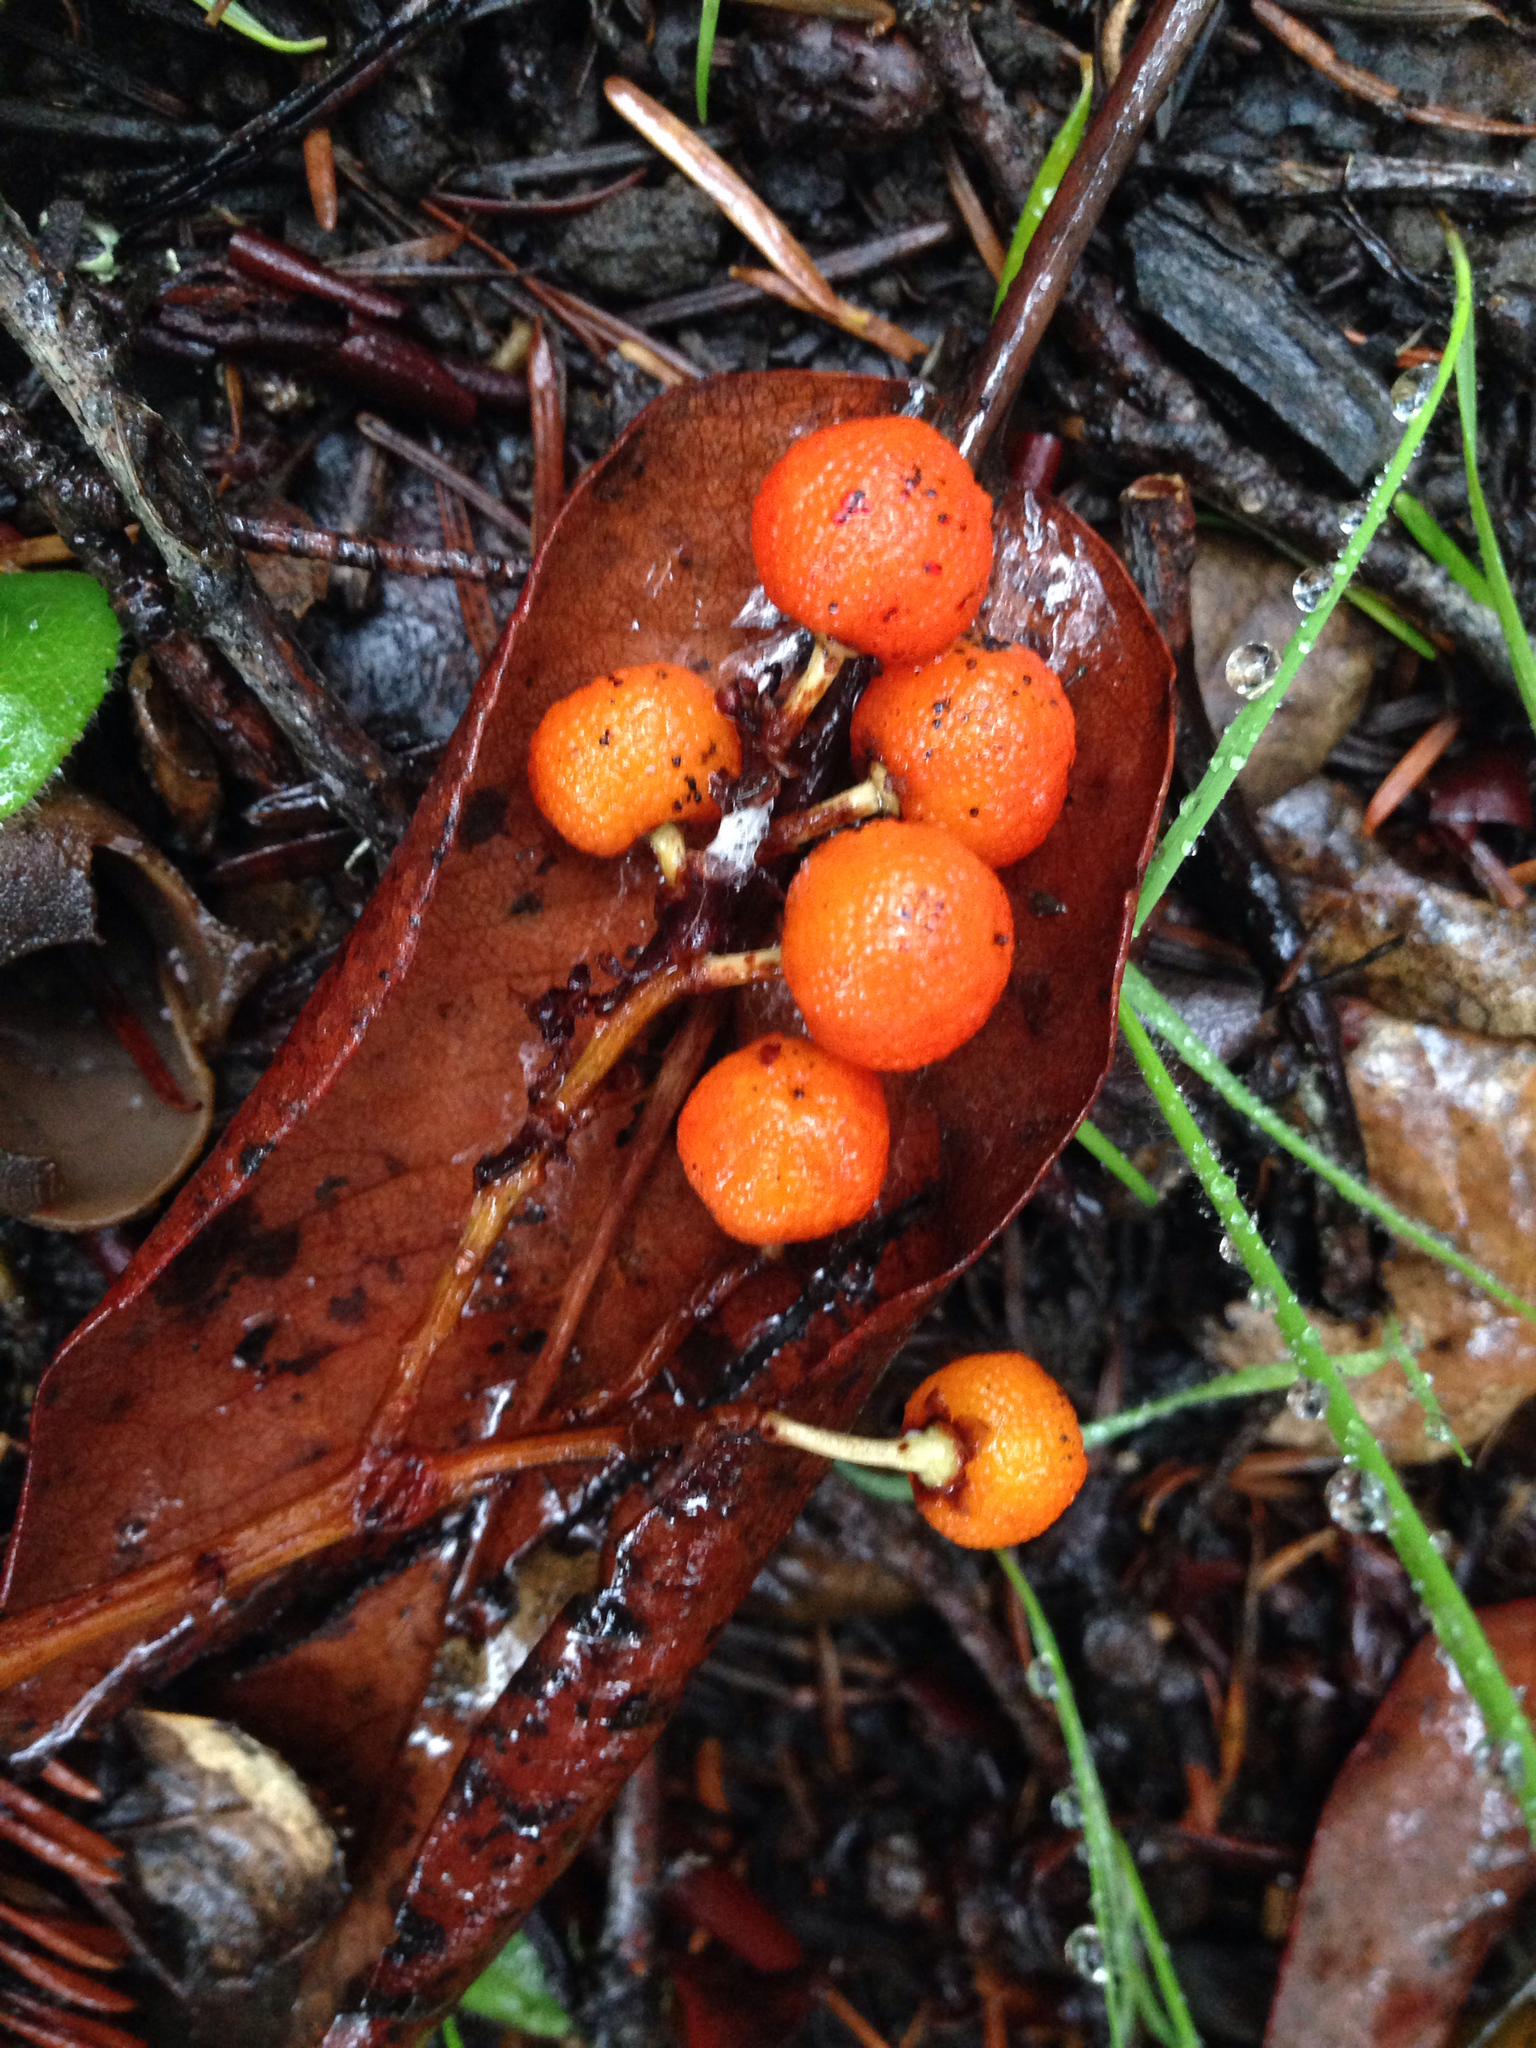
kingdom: Plantae
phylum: Tracheophyta
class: Magnoliopsida
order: Ericales
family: Ericaceae
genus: Arbutus
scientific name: Arbutus menziesii
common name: Pacific madrone
